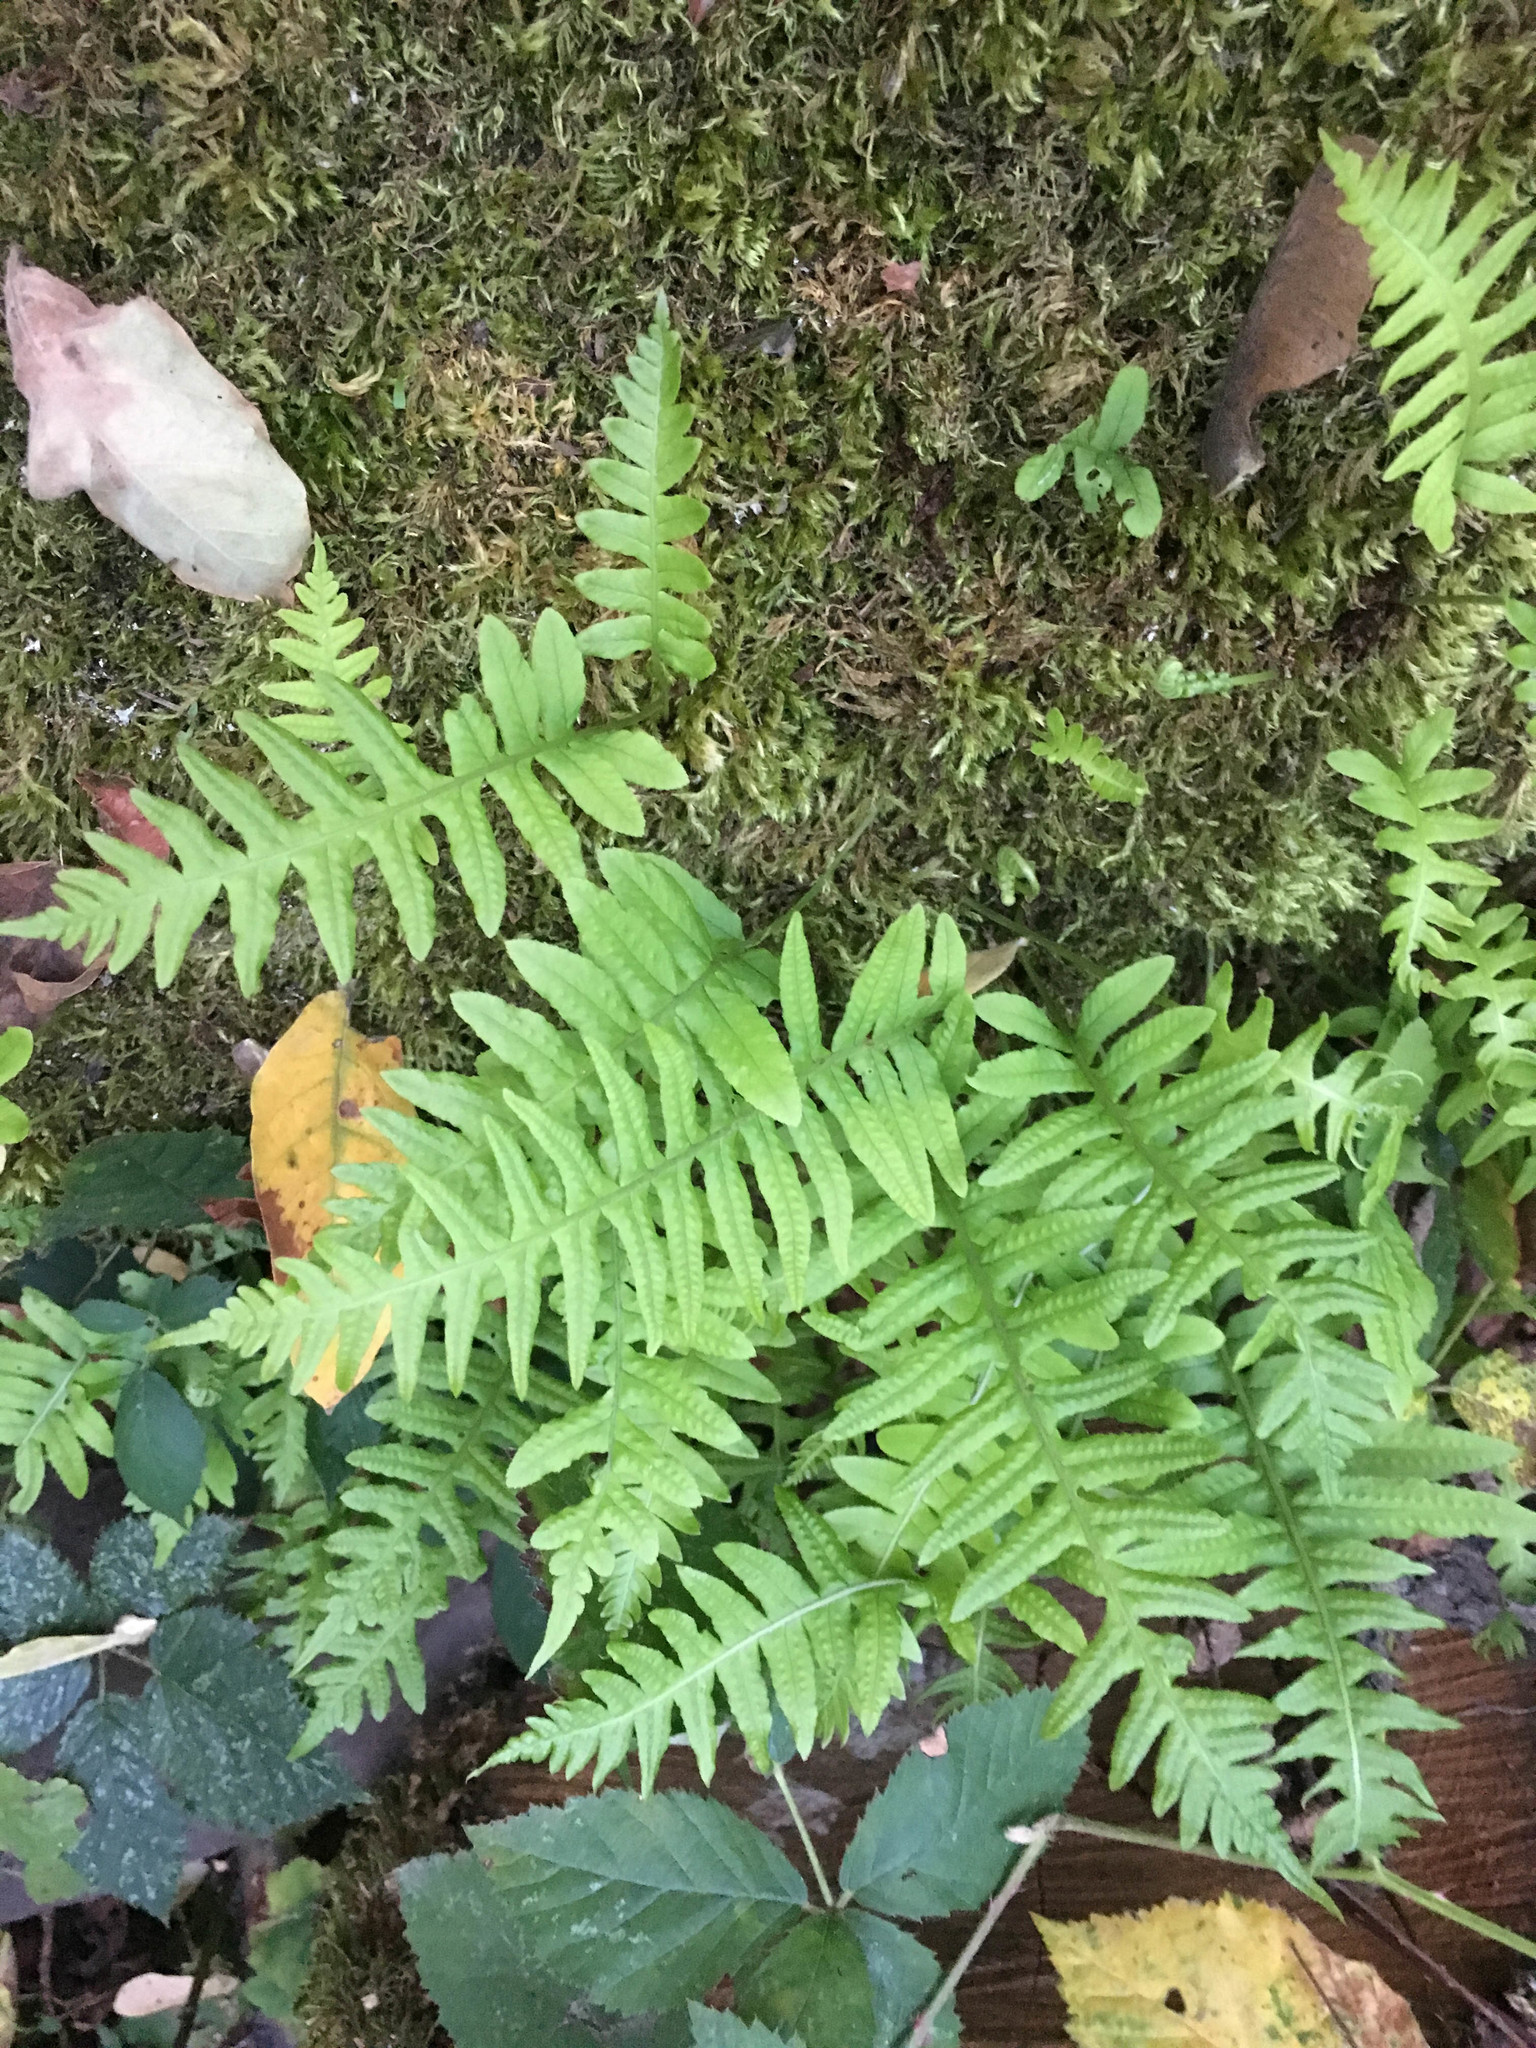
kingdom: Plantae
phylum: Tracheophyta
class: Polypodiopsida
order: Polypodiales
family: Polypodiaceae
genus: Polypodium
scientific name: Polypodium glycyrrhiza
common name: Licorice fern
